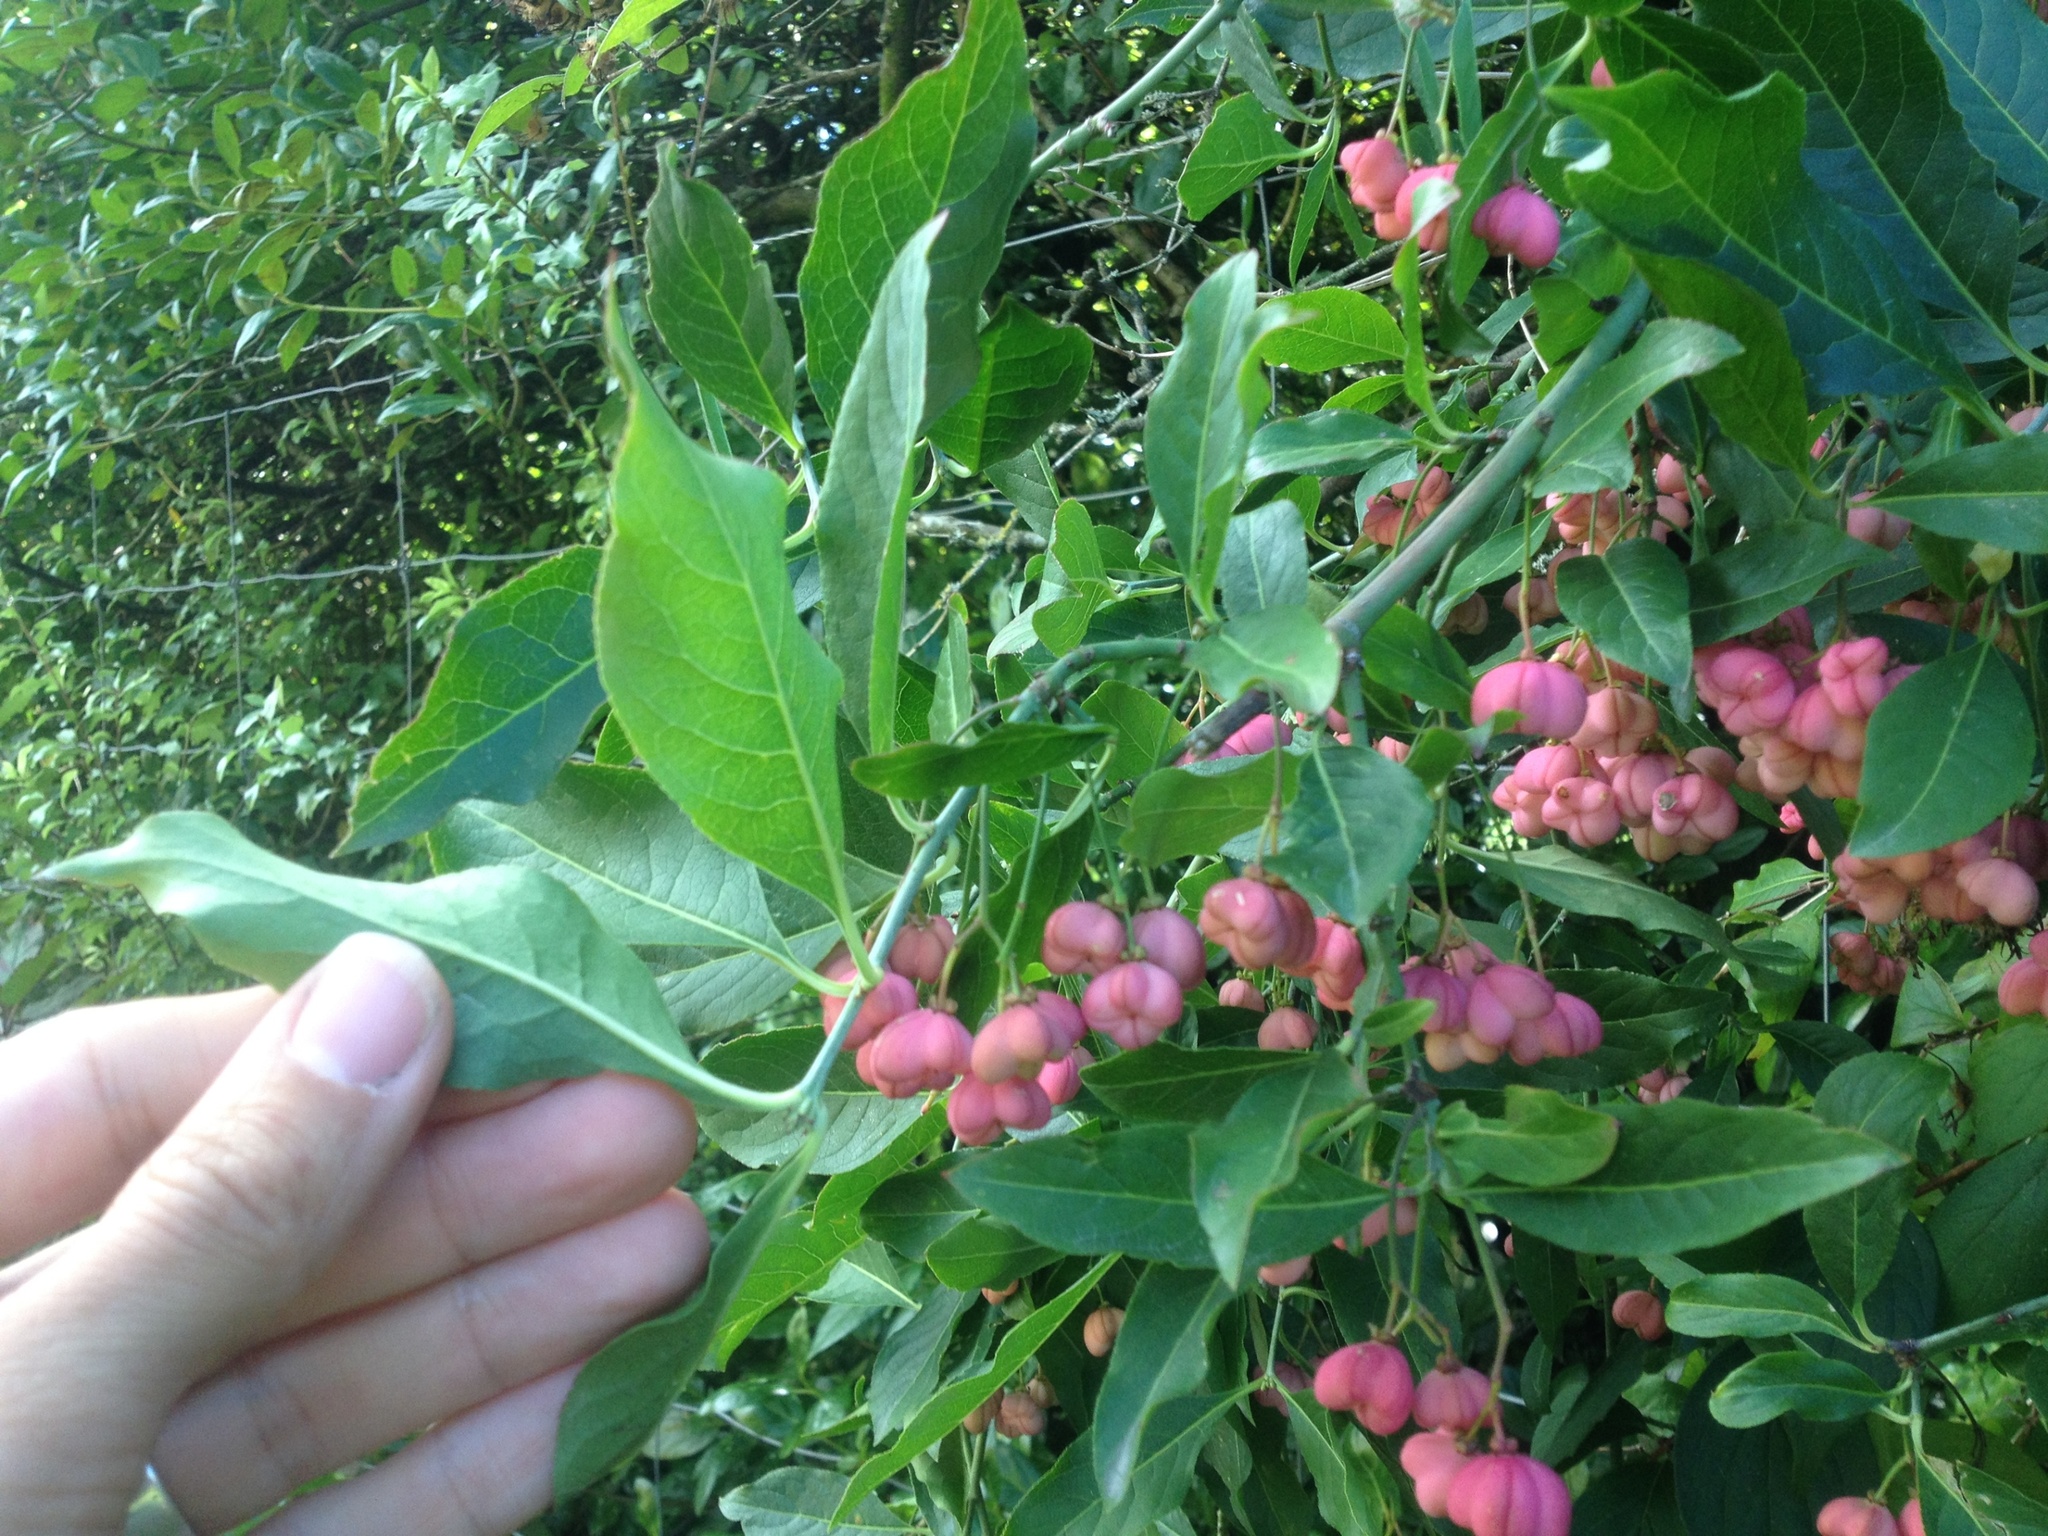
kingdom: Plantae
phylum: Tracheophyta
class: Magnoliopsida
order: Celastrales
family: Celastraceae
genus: Euonymus
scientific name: Euonymus europaeus
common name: Spindle
